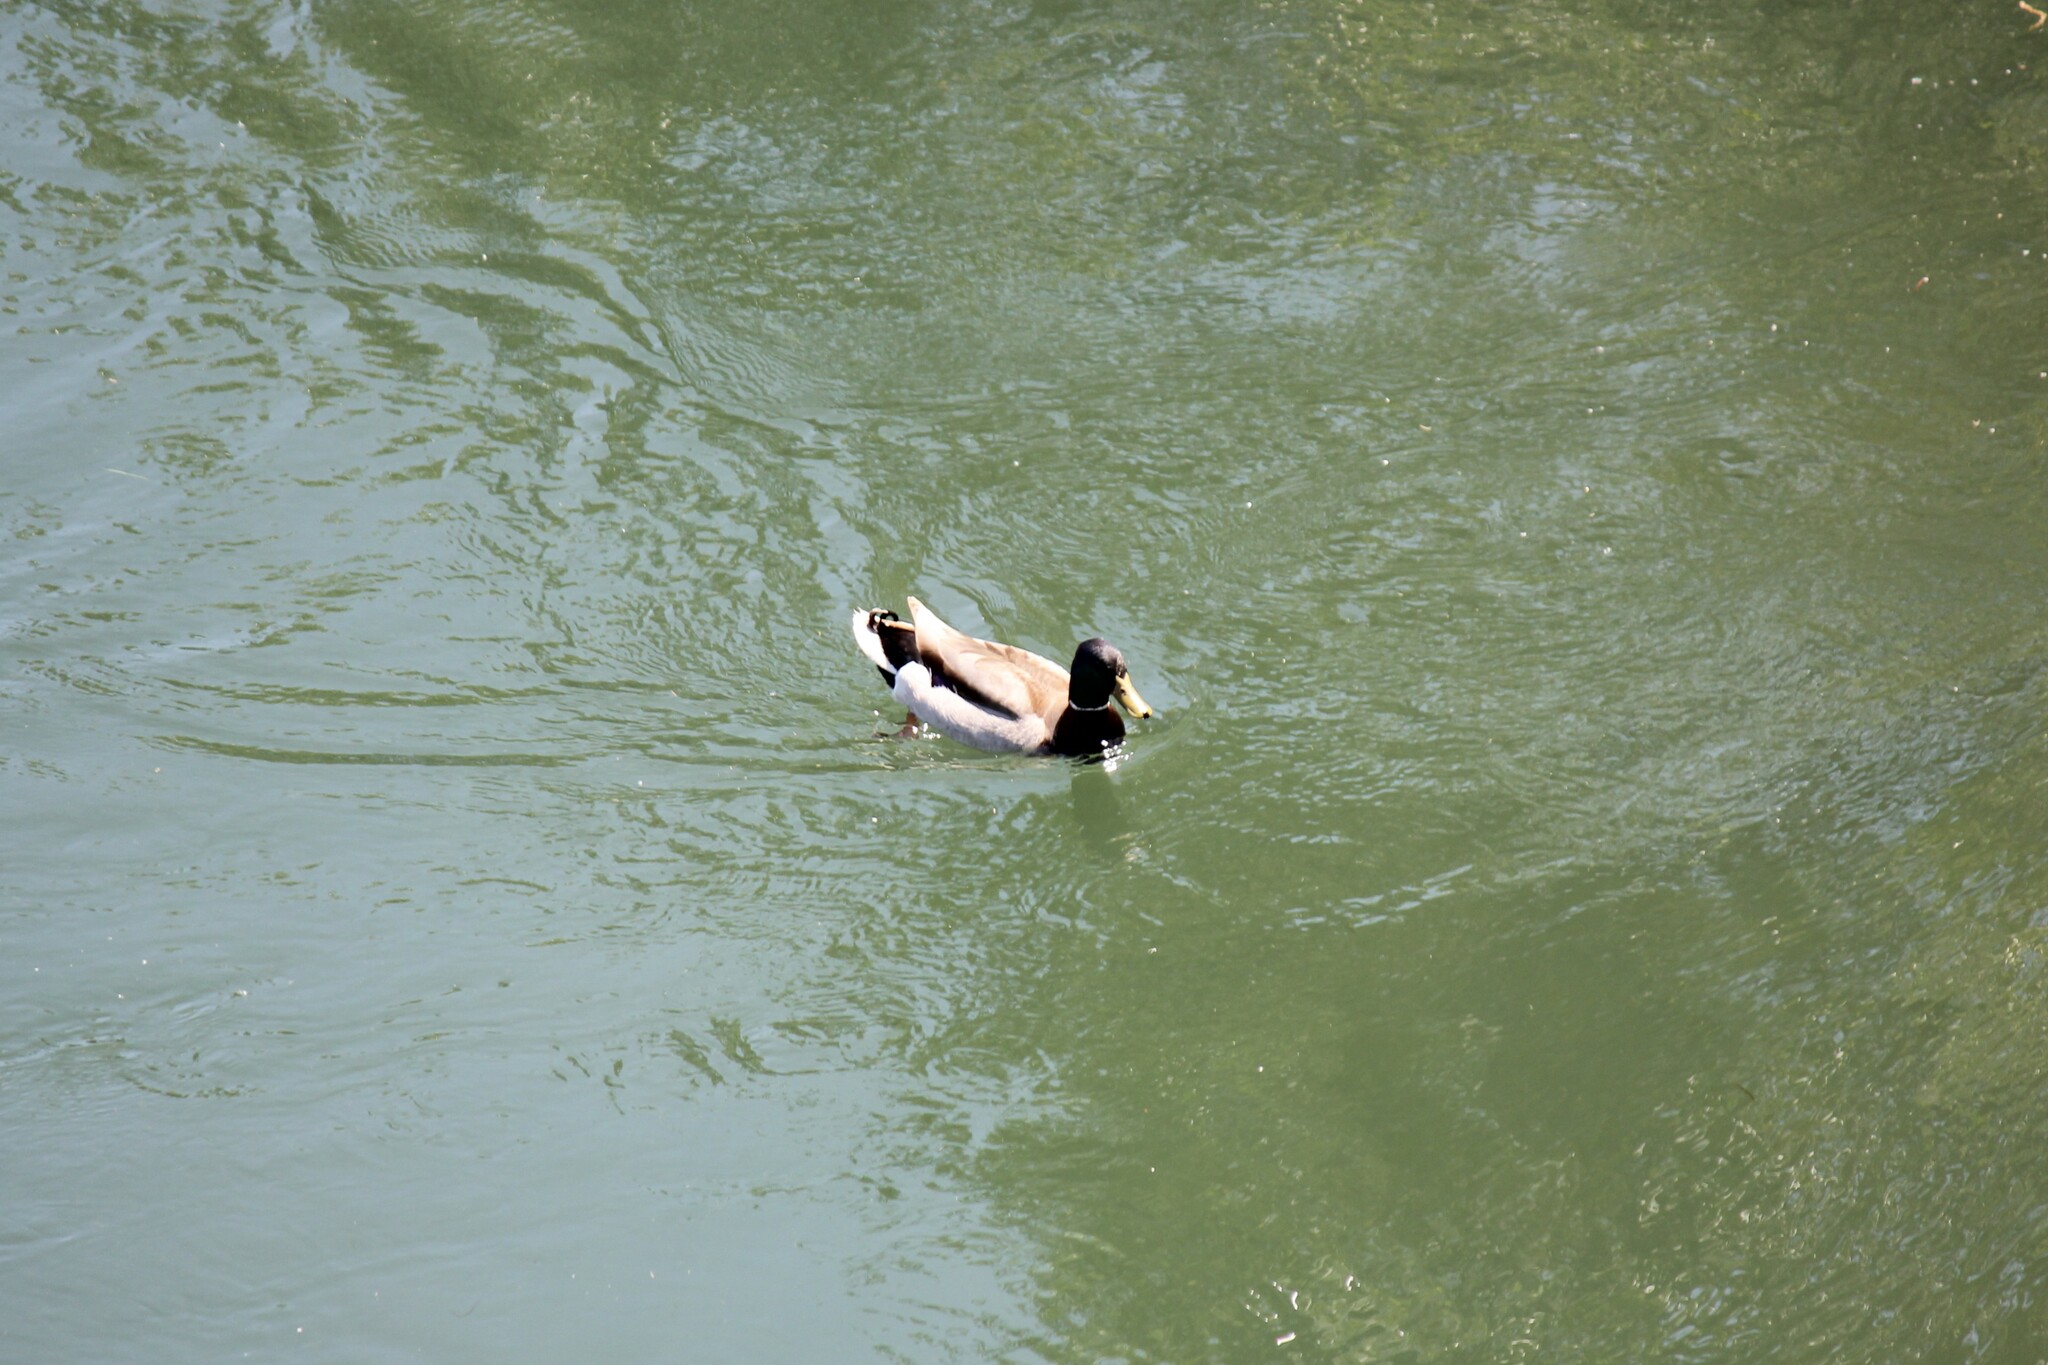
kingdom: Animalia
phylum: Chordata
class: Aves
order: Anseriformes
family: Anatidae
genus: Anas
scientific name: Anas platyrhynchos
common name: Mallard
